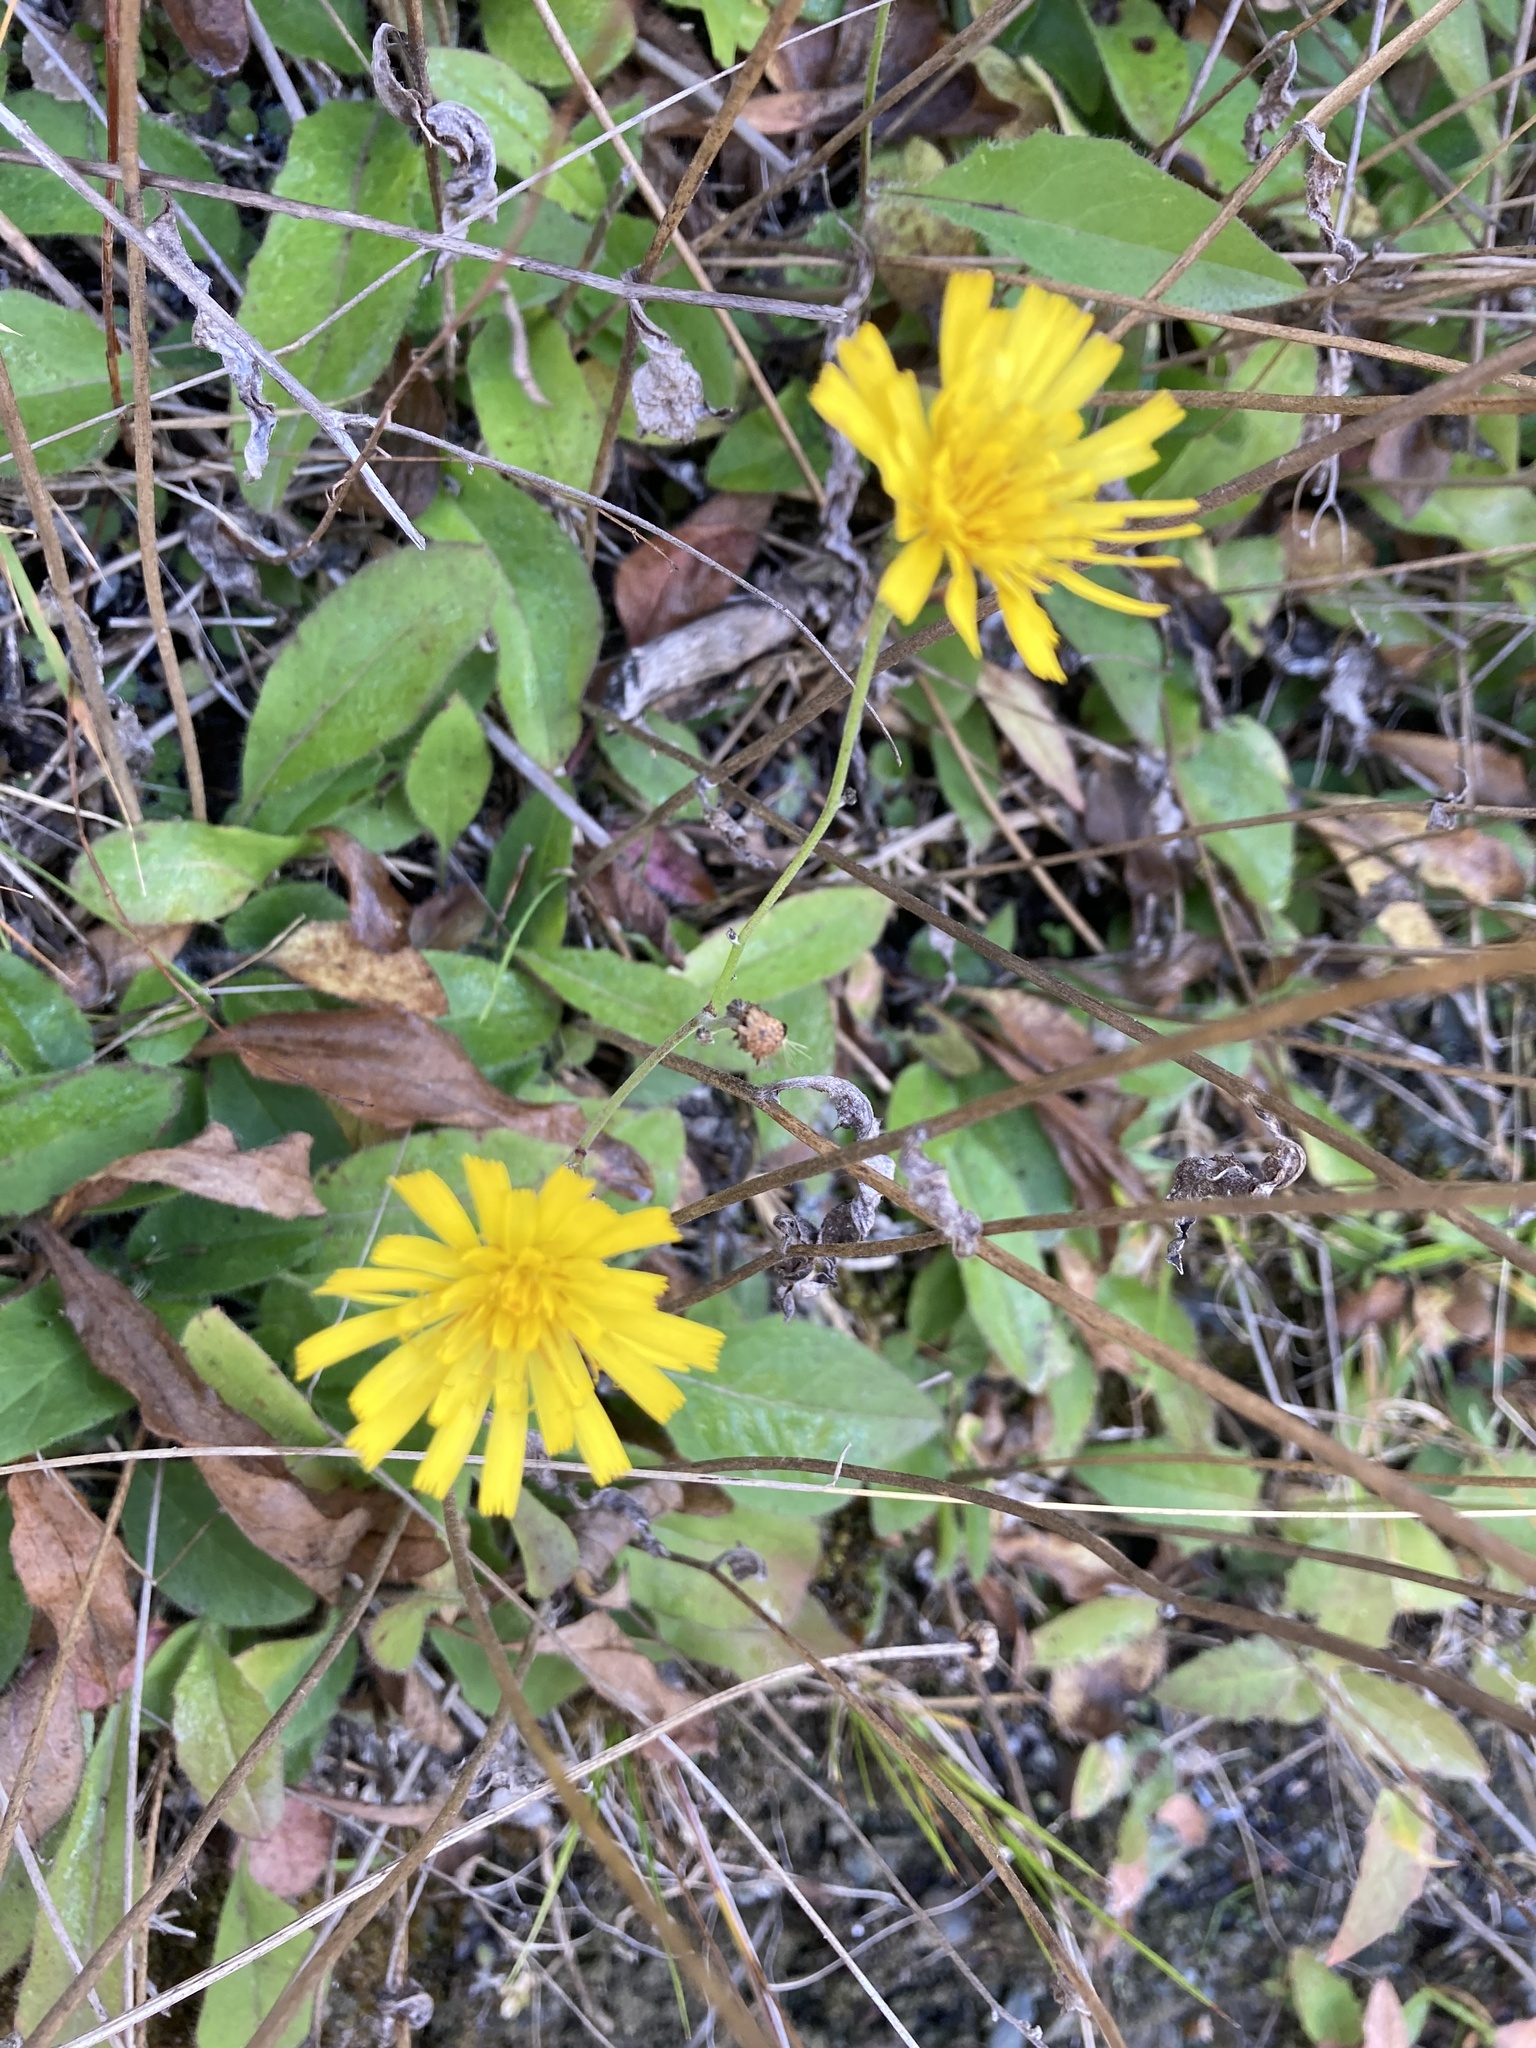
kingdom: Plantae
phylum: Tracheophyta
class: Magnoliopsida
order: Asterales
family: Asteraceae
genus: Hieracium
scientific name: Hieracium lepidulum
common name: Irregular-toothed hawkweed
